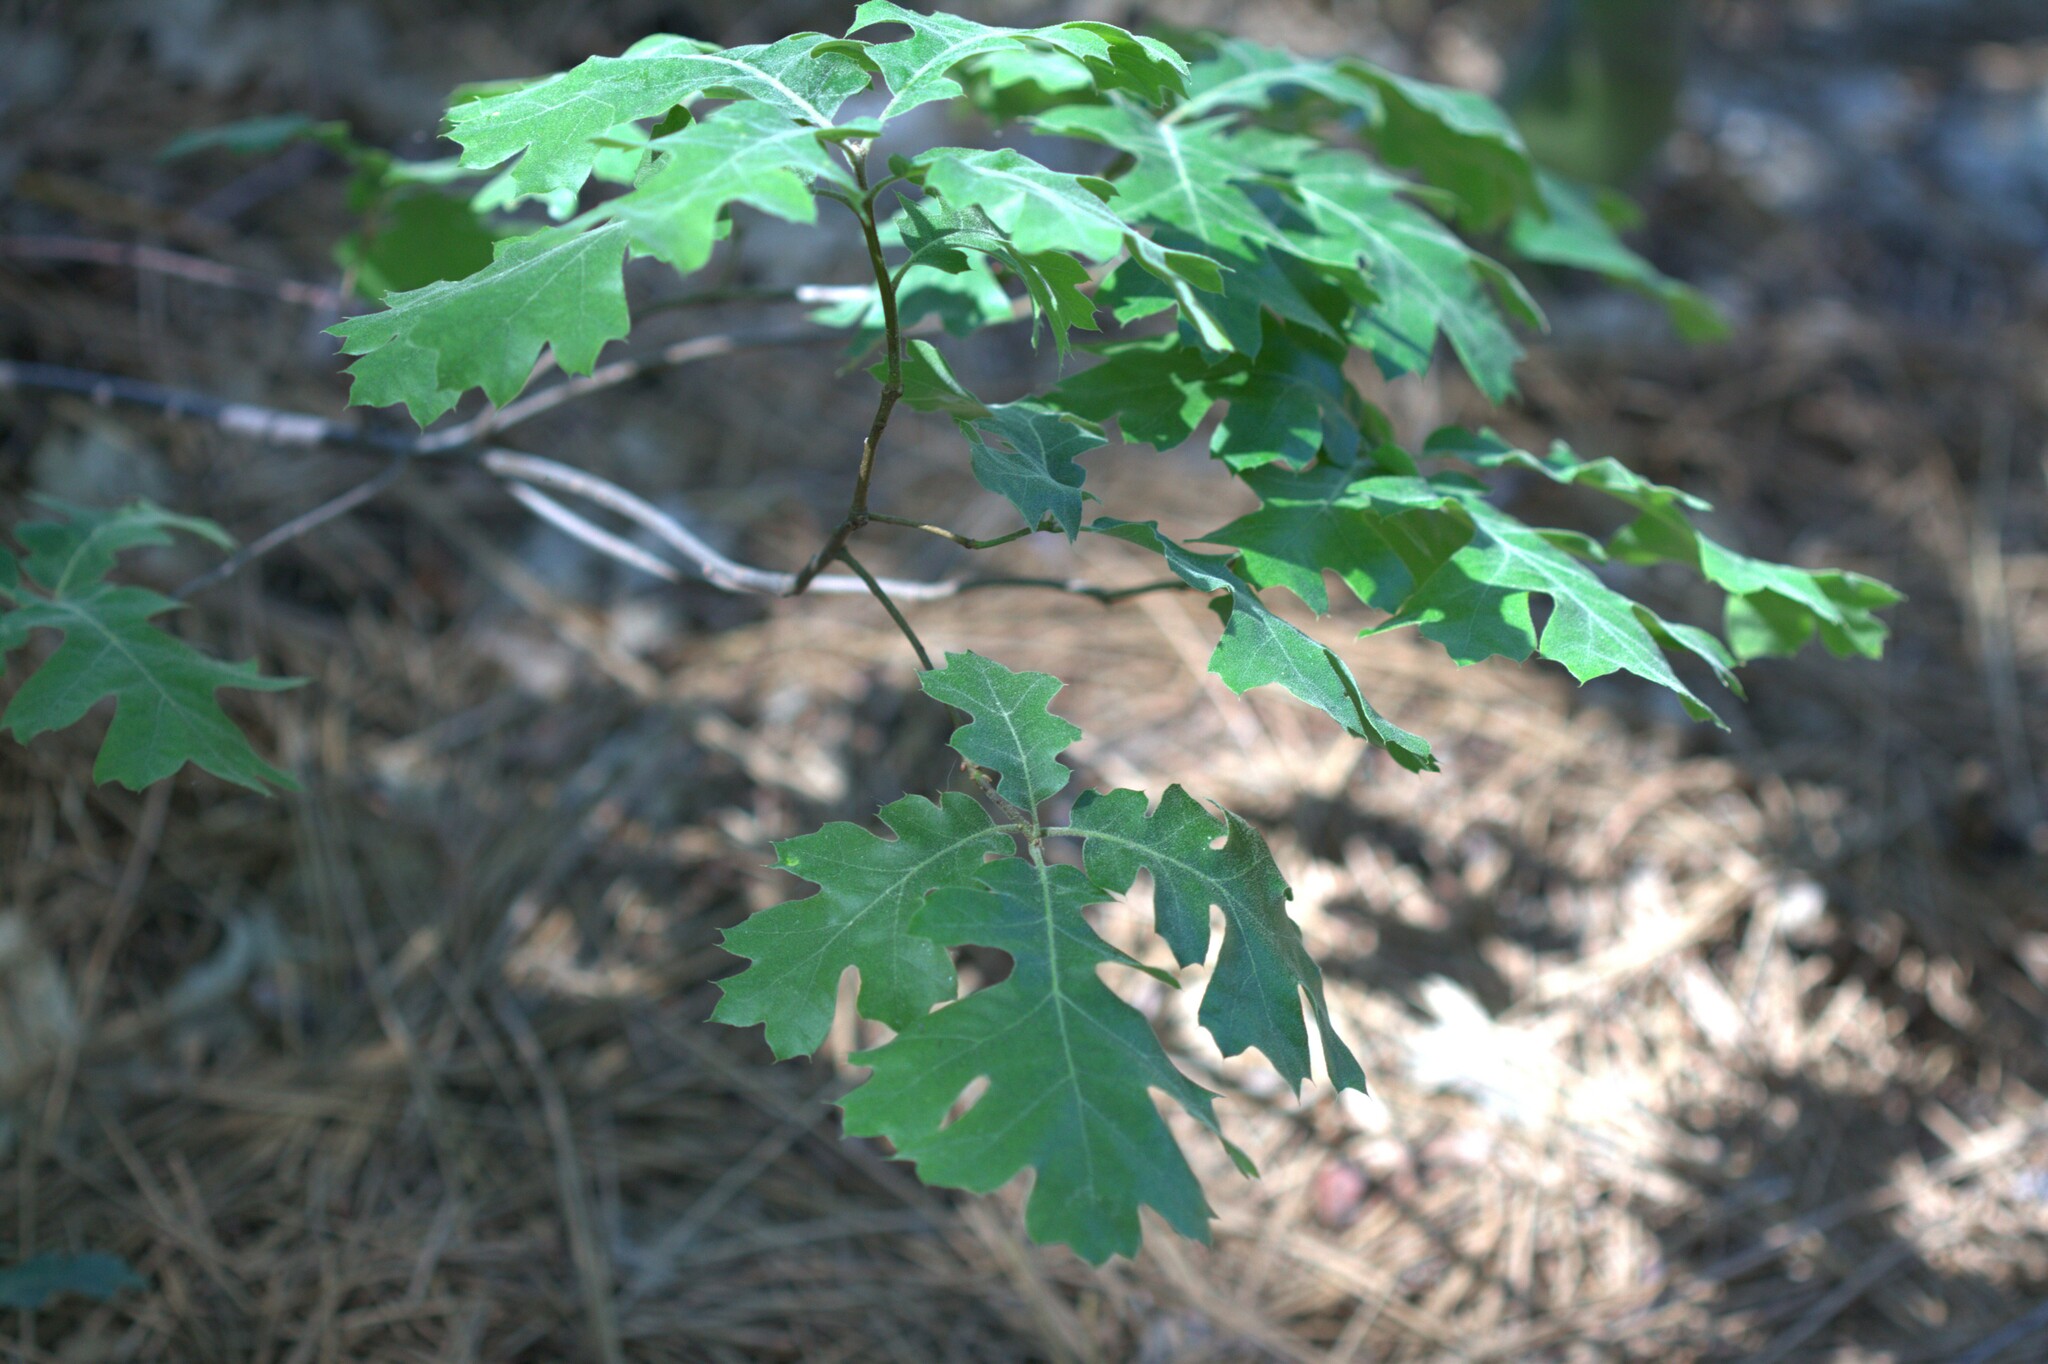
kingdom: Plantae
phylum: Tracheophyta
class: Magnoliopsida
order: Fagales
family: Fagaceae
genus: Quercus
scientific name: Quercus kelloggii
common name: California black oak
